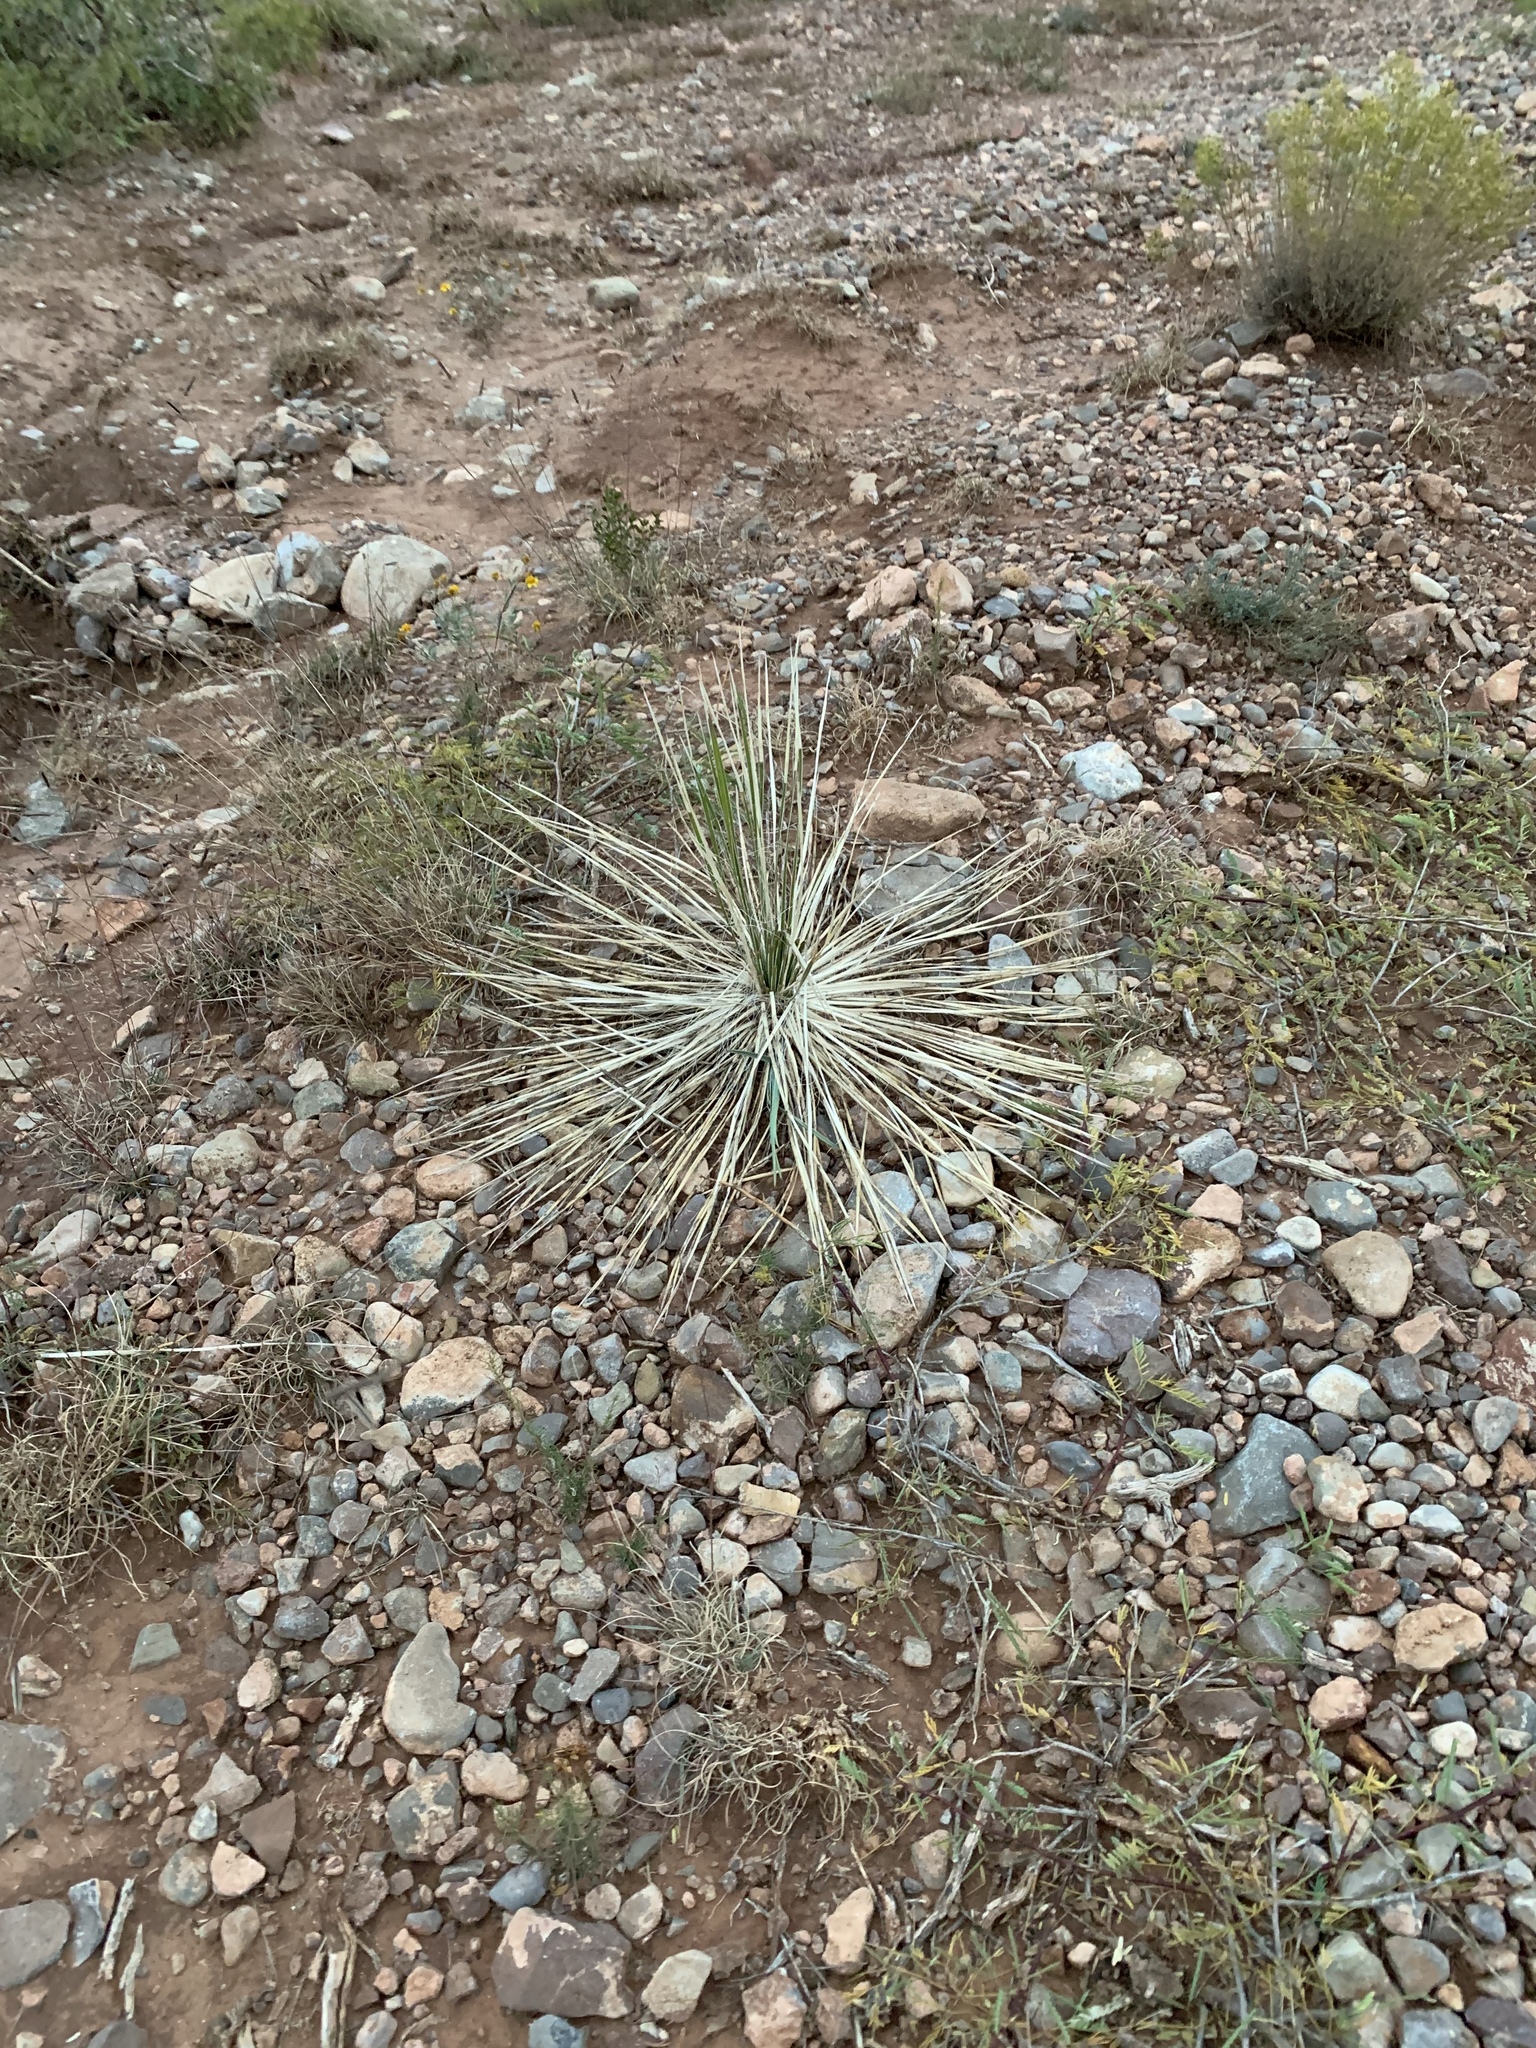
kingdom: Plantae
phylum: Tracheophyta
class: Liliopsida
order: Asparagales
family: Asparagaceae
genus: Yucca
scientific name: Yucca elata
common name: Palmella
